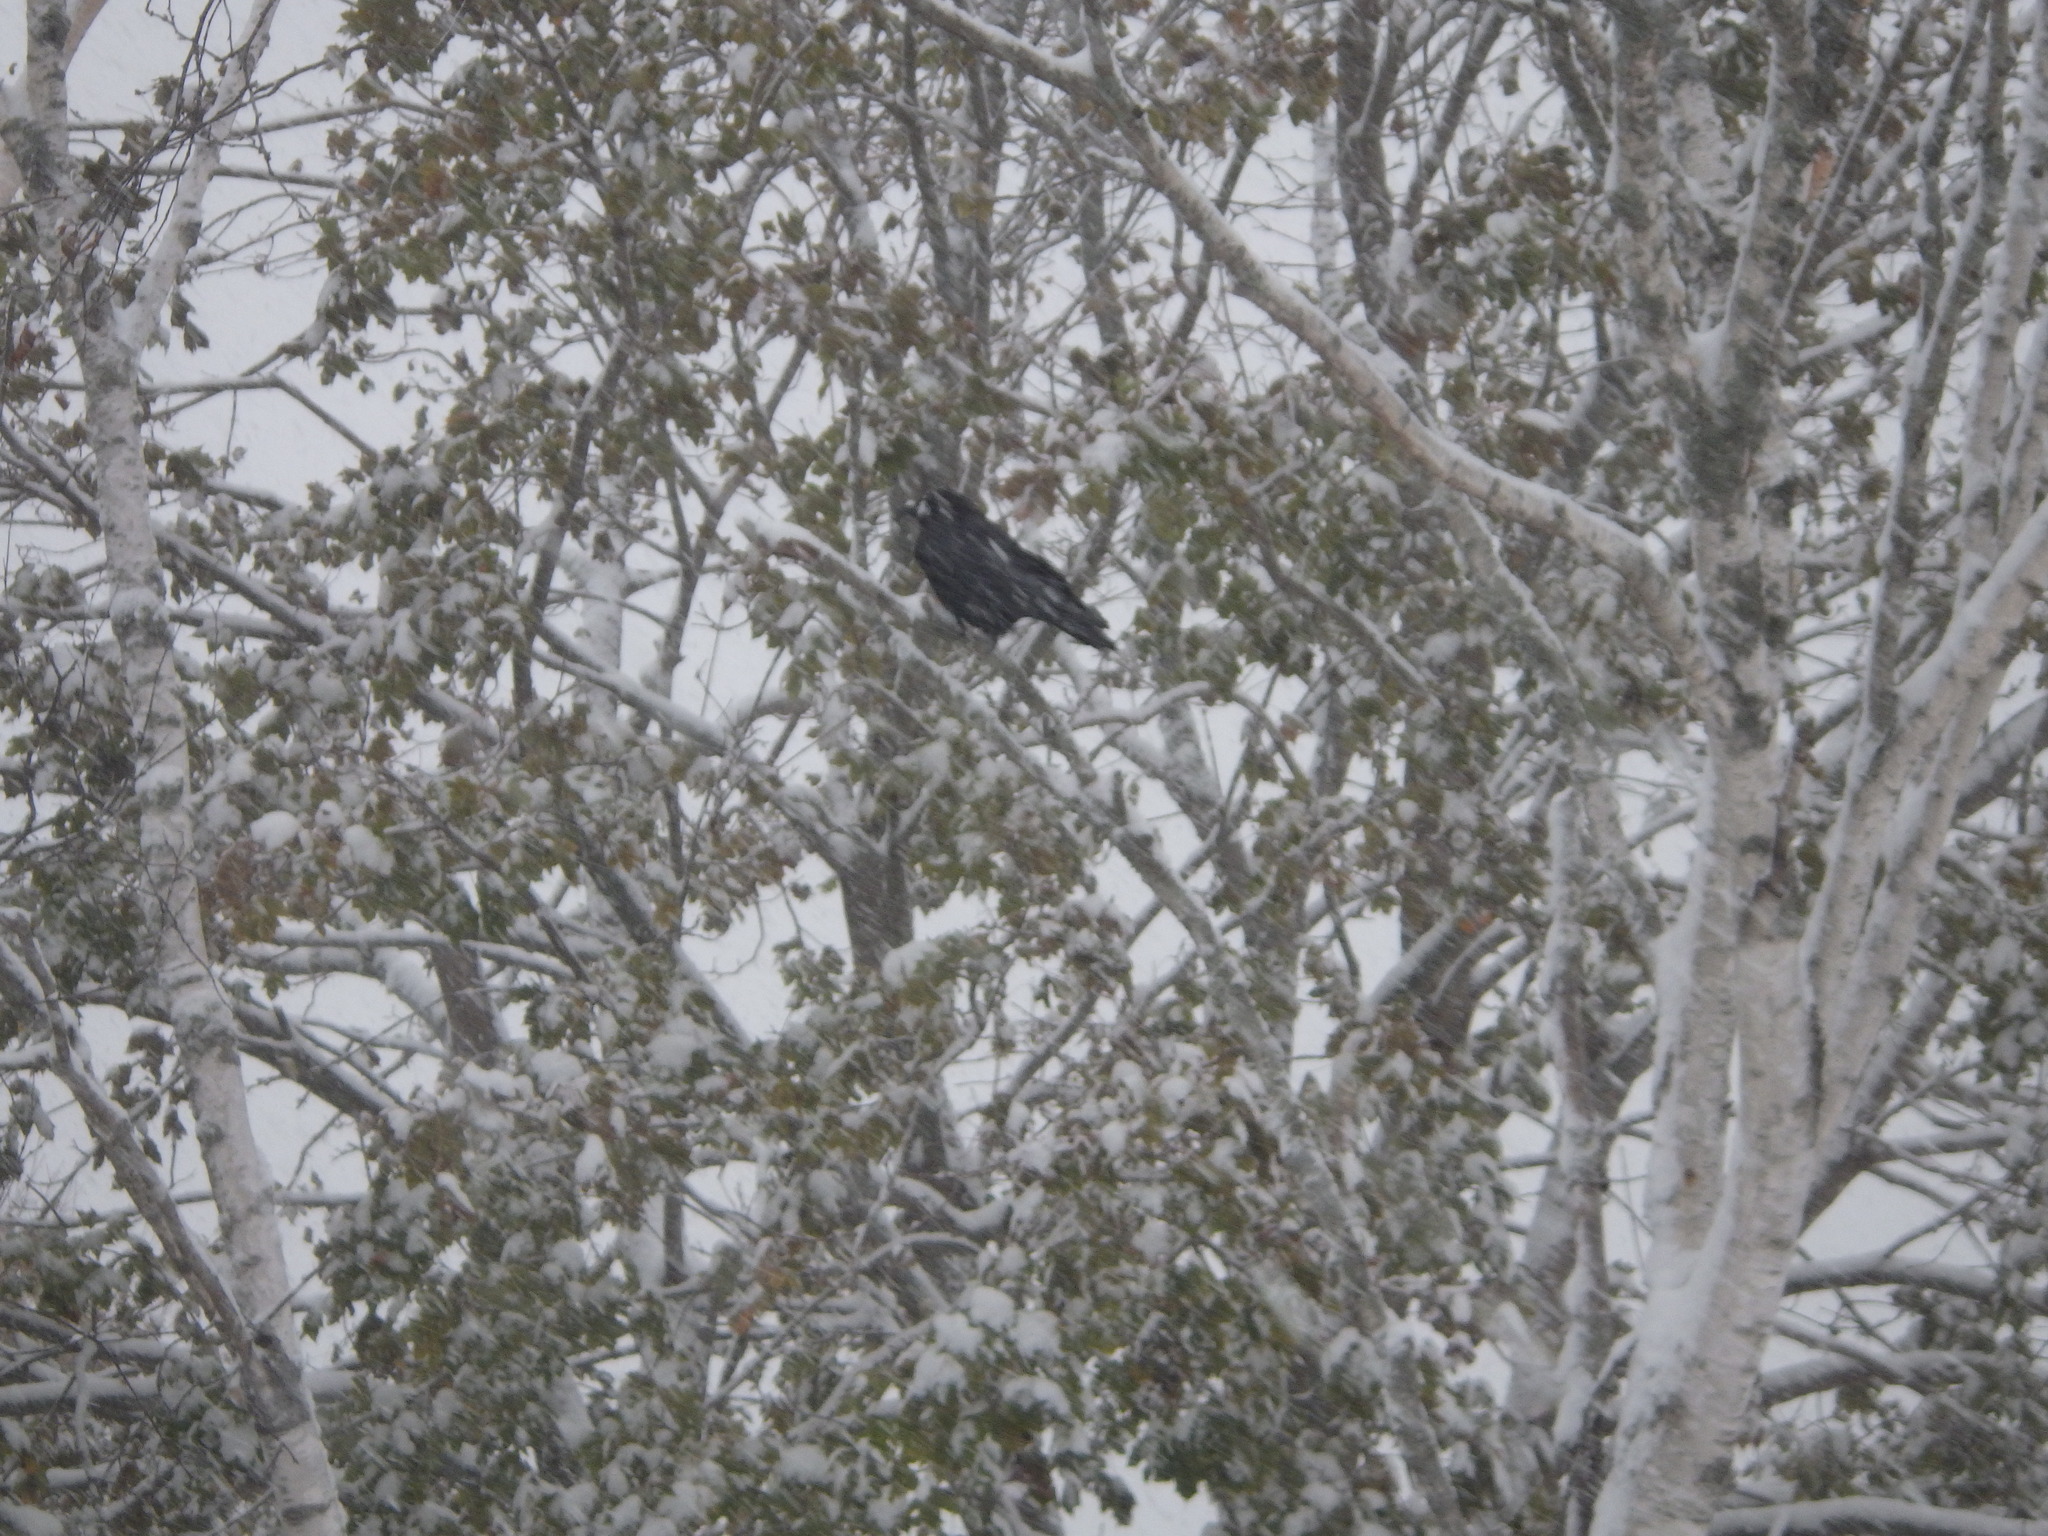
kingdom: Animalia
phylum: Chordata
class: Aves
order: Passeriformes
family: Corvidae
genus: Corvus
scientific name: Corvus brachyrhynchos
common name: American crow
